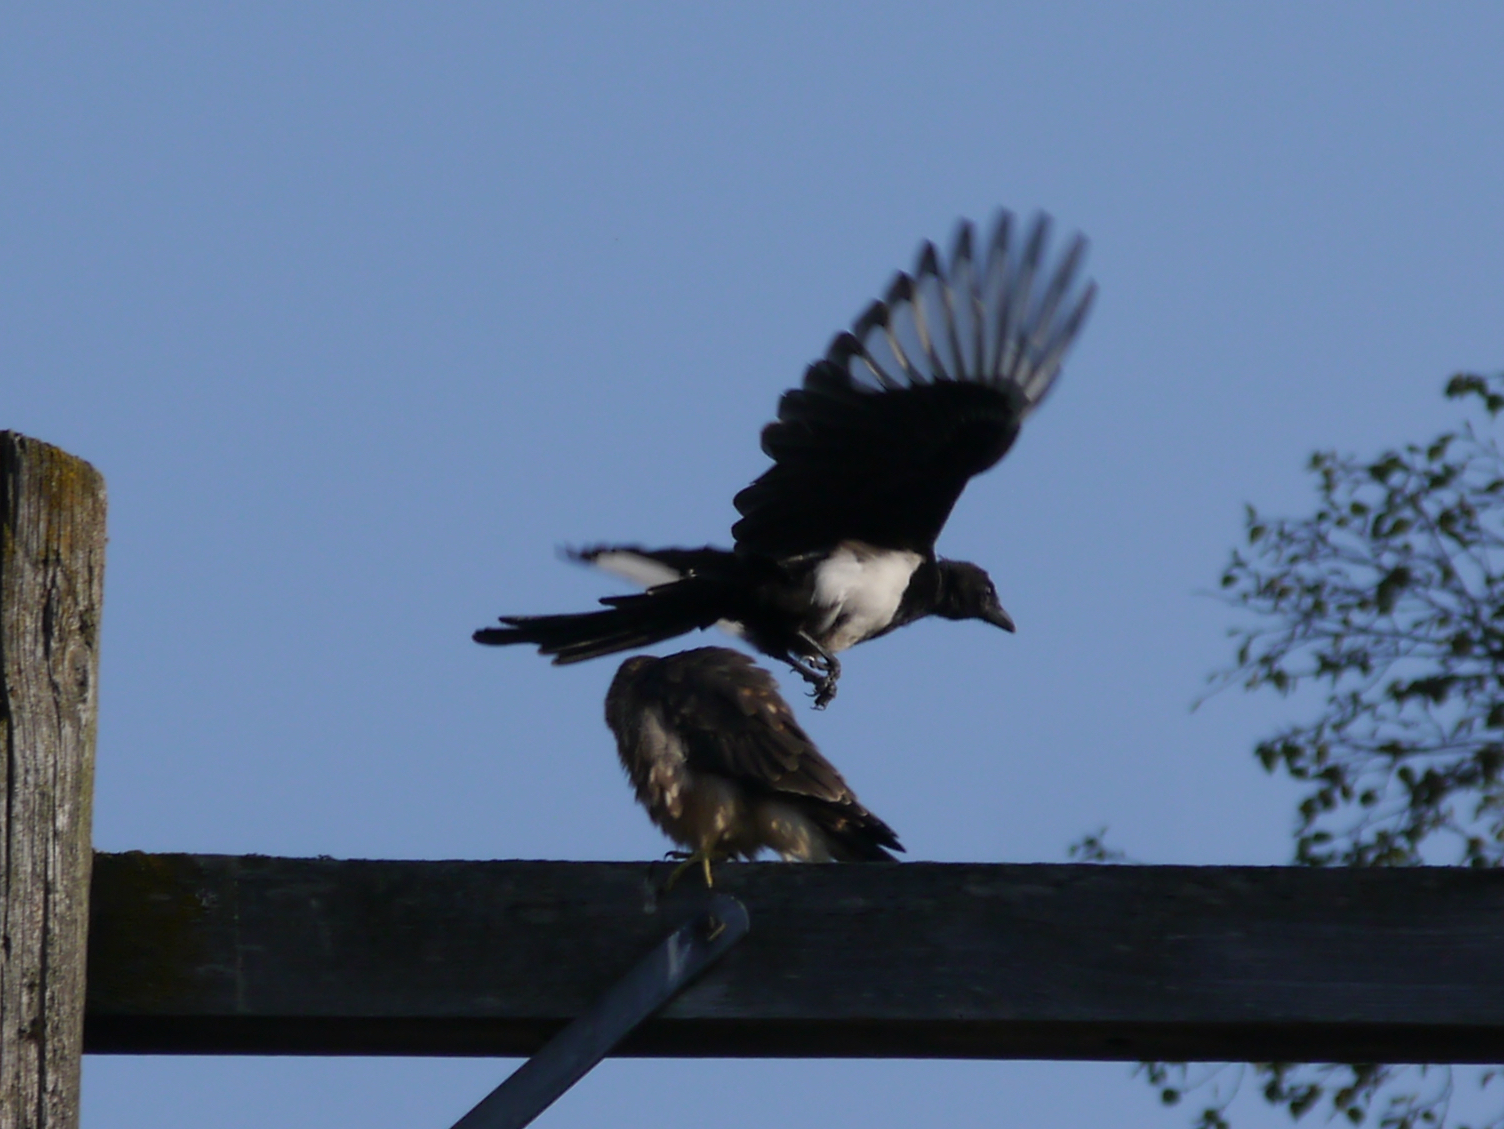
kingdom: Animalia
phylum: Chordata
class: Aves
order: Falconiformes
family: Falconidae
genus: Falco
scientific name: Falco columbarius
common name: Merlin
